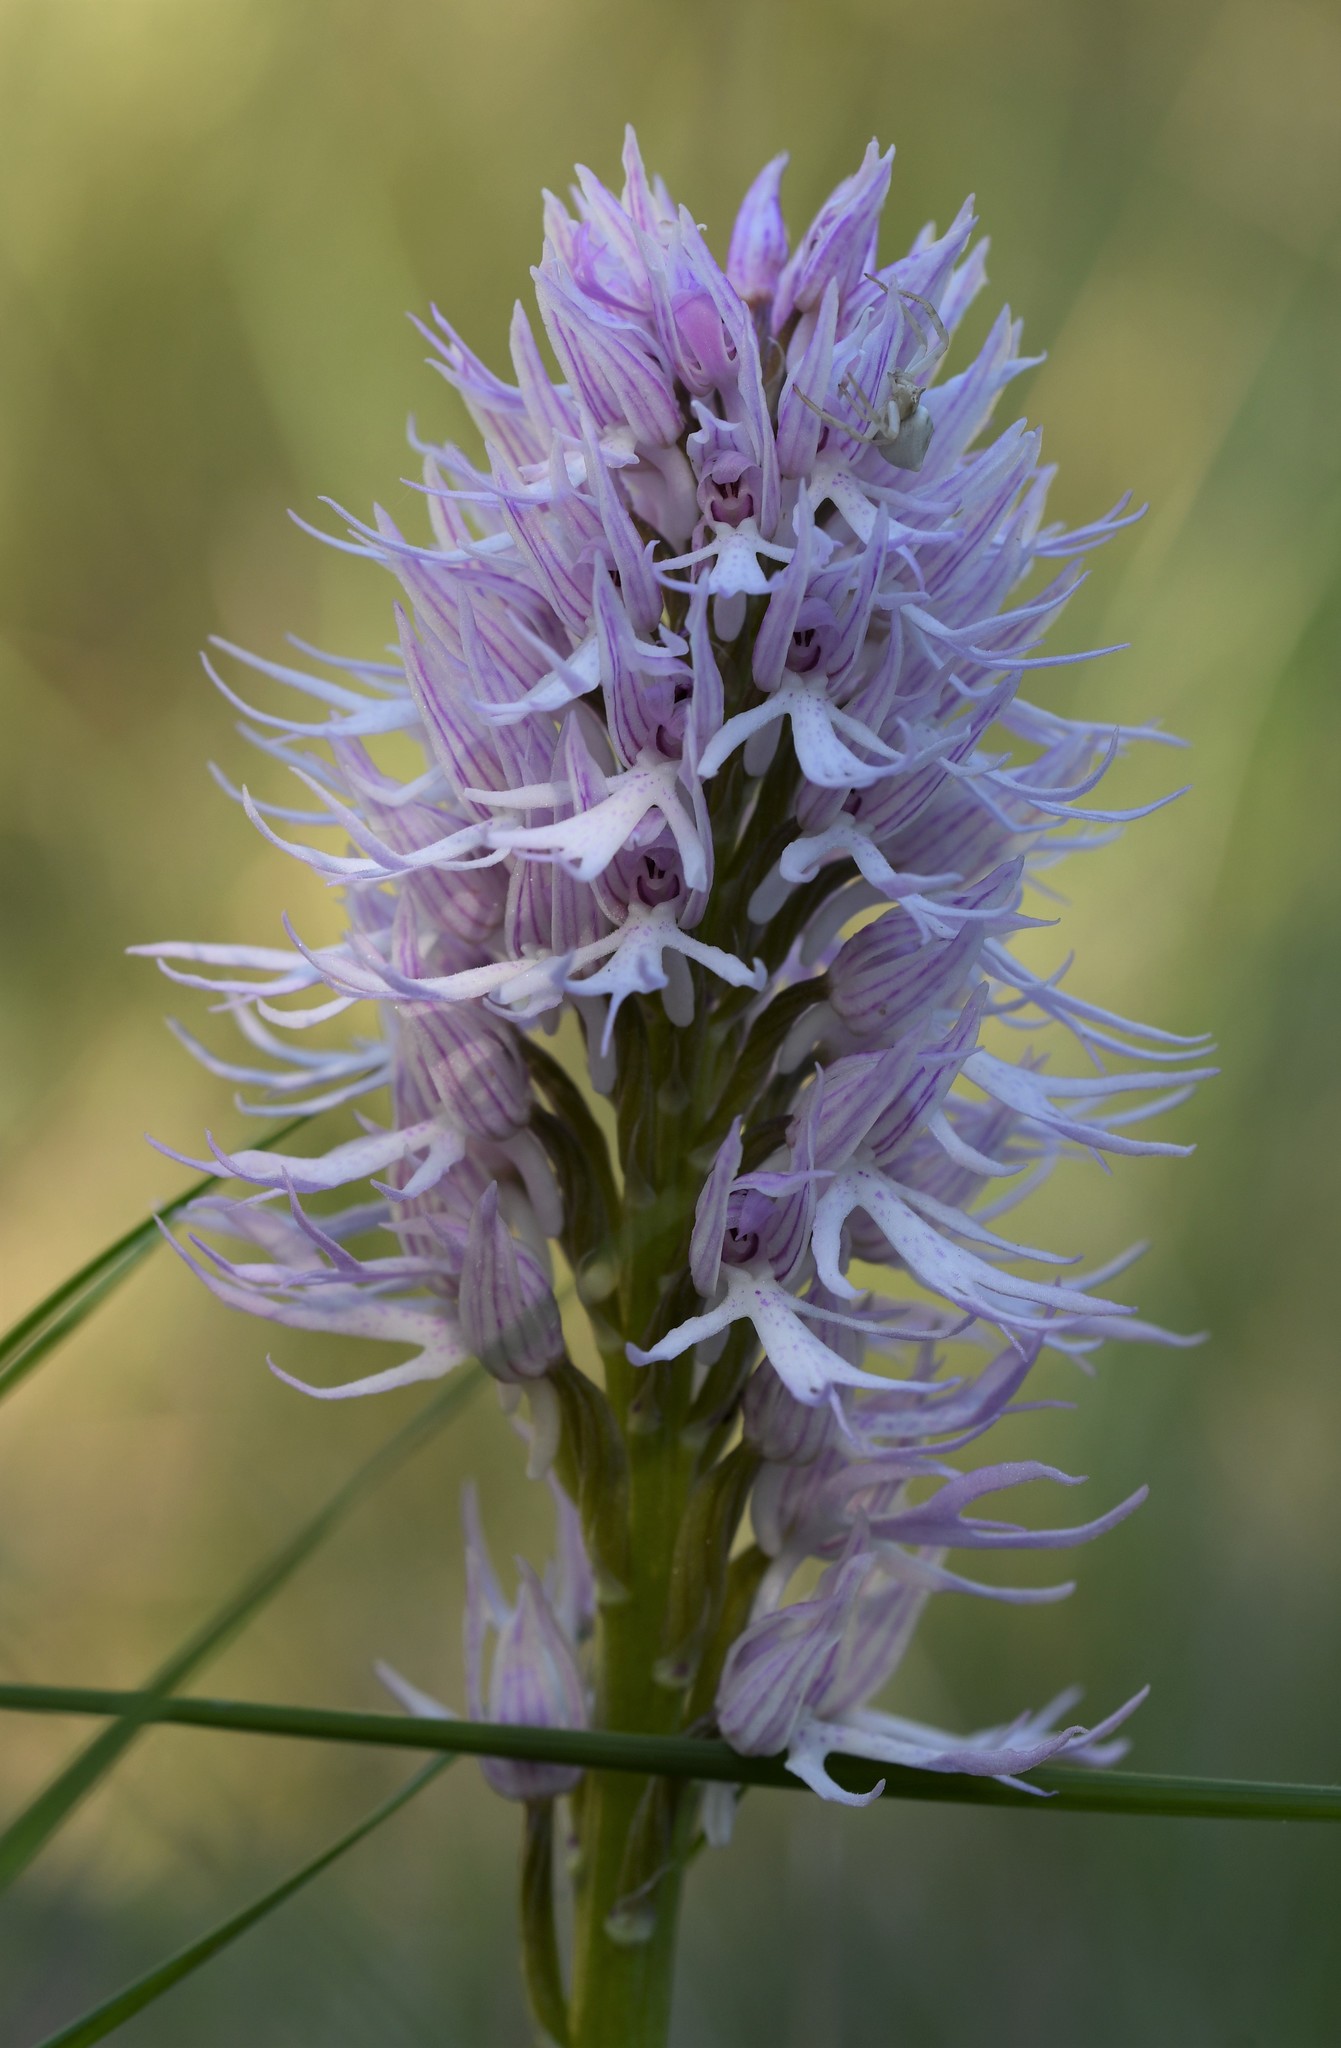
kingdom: Plantae
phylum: Tracheophyta
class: Liliopsida
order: Asparagales
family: Orchidaceae
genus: Orchis
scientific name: Orchis italica
